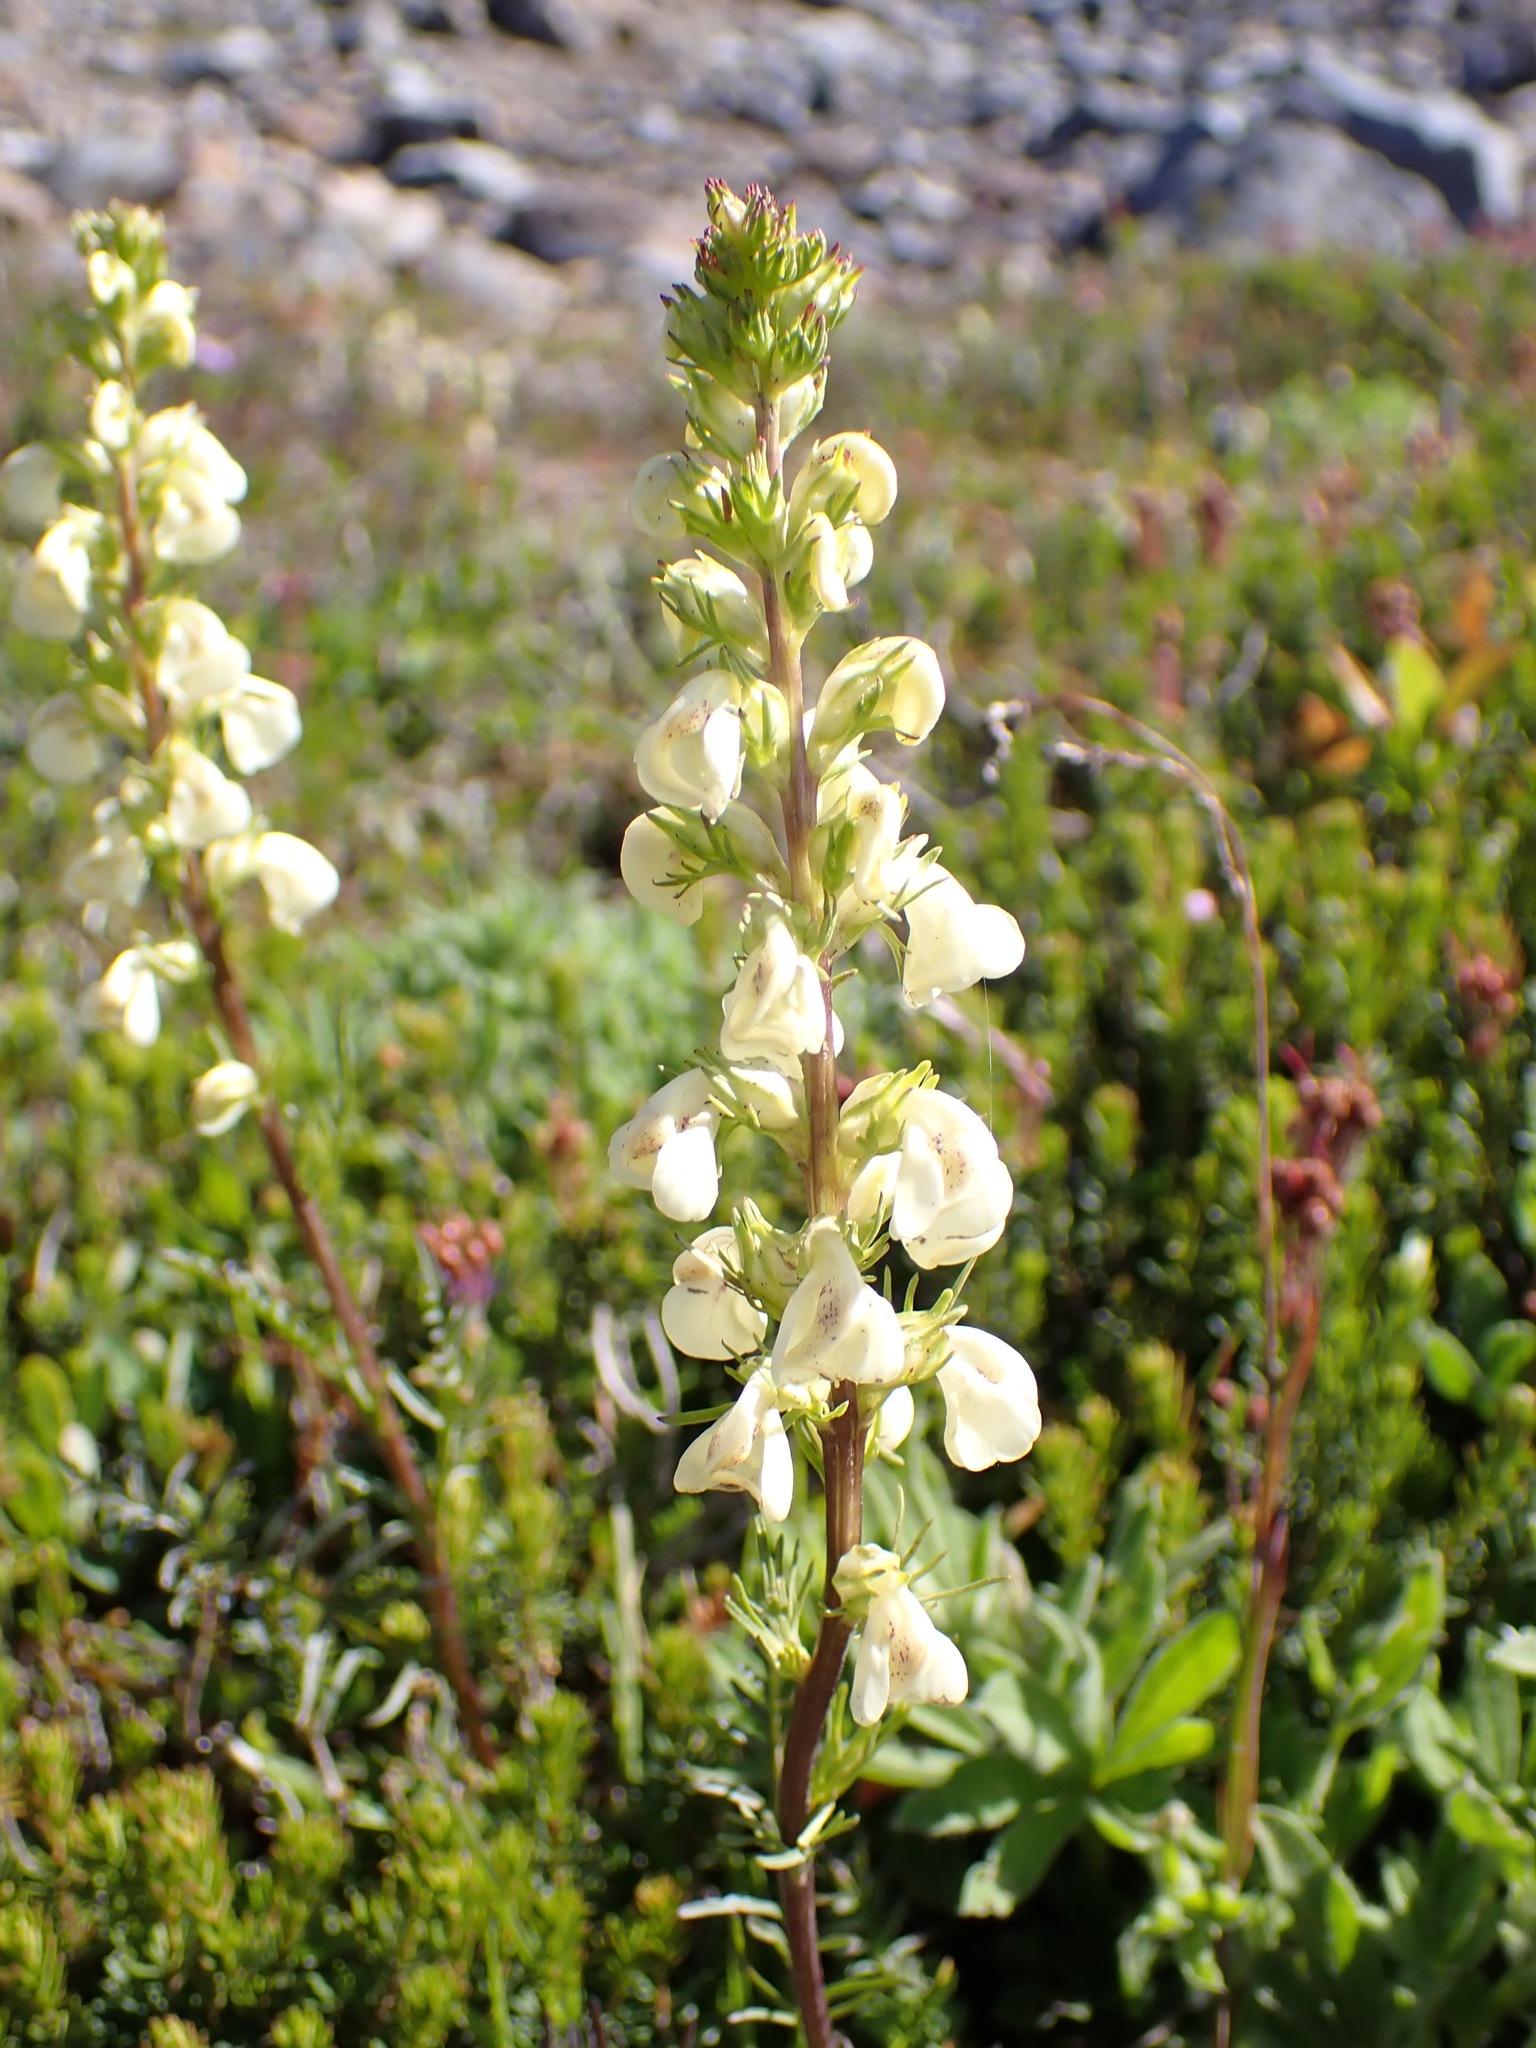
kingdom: Plantae
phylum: Tracheophyta
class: Magnoliopsida
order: Lamiales
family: Orobanchaceae
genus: Pedicularis
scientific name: Pedicularis contorta
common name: Coiled lousewort
